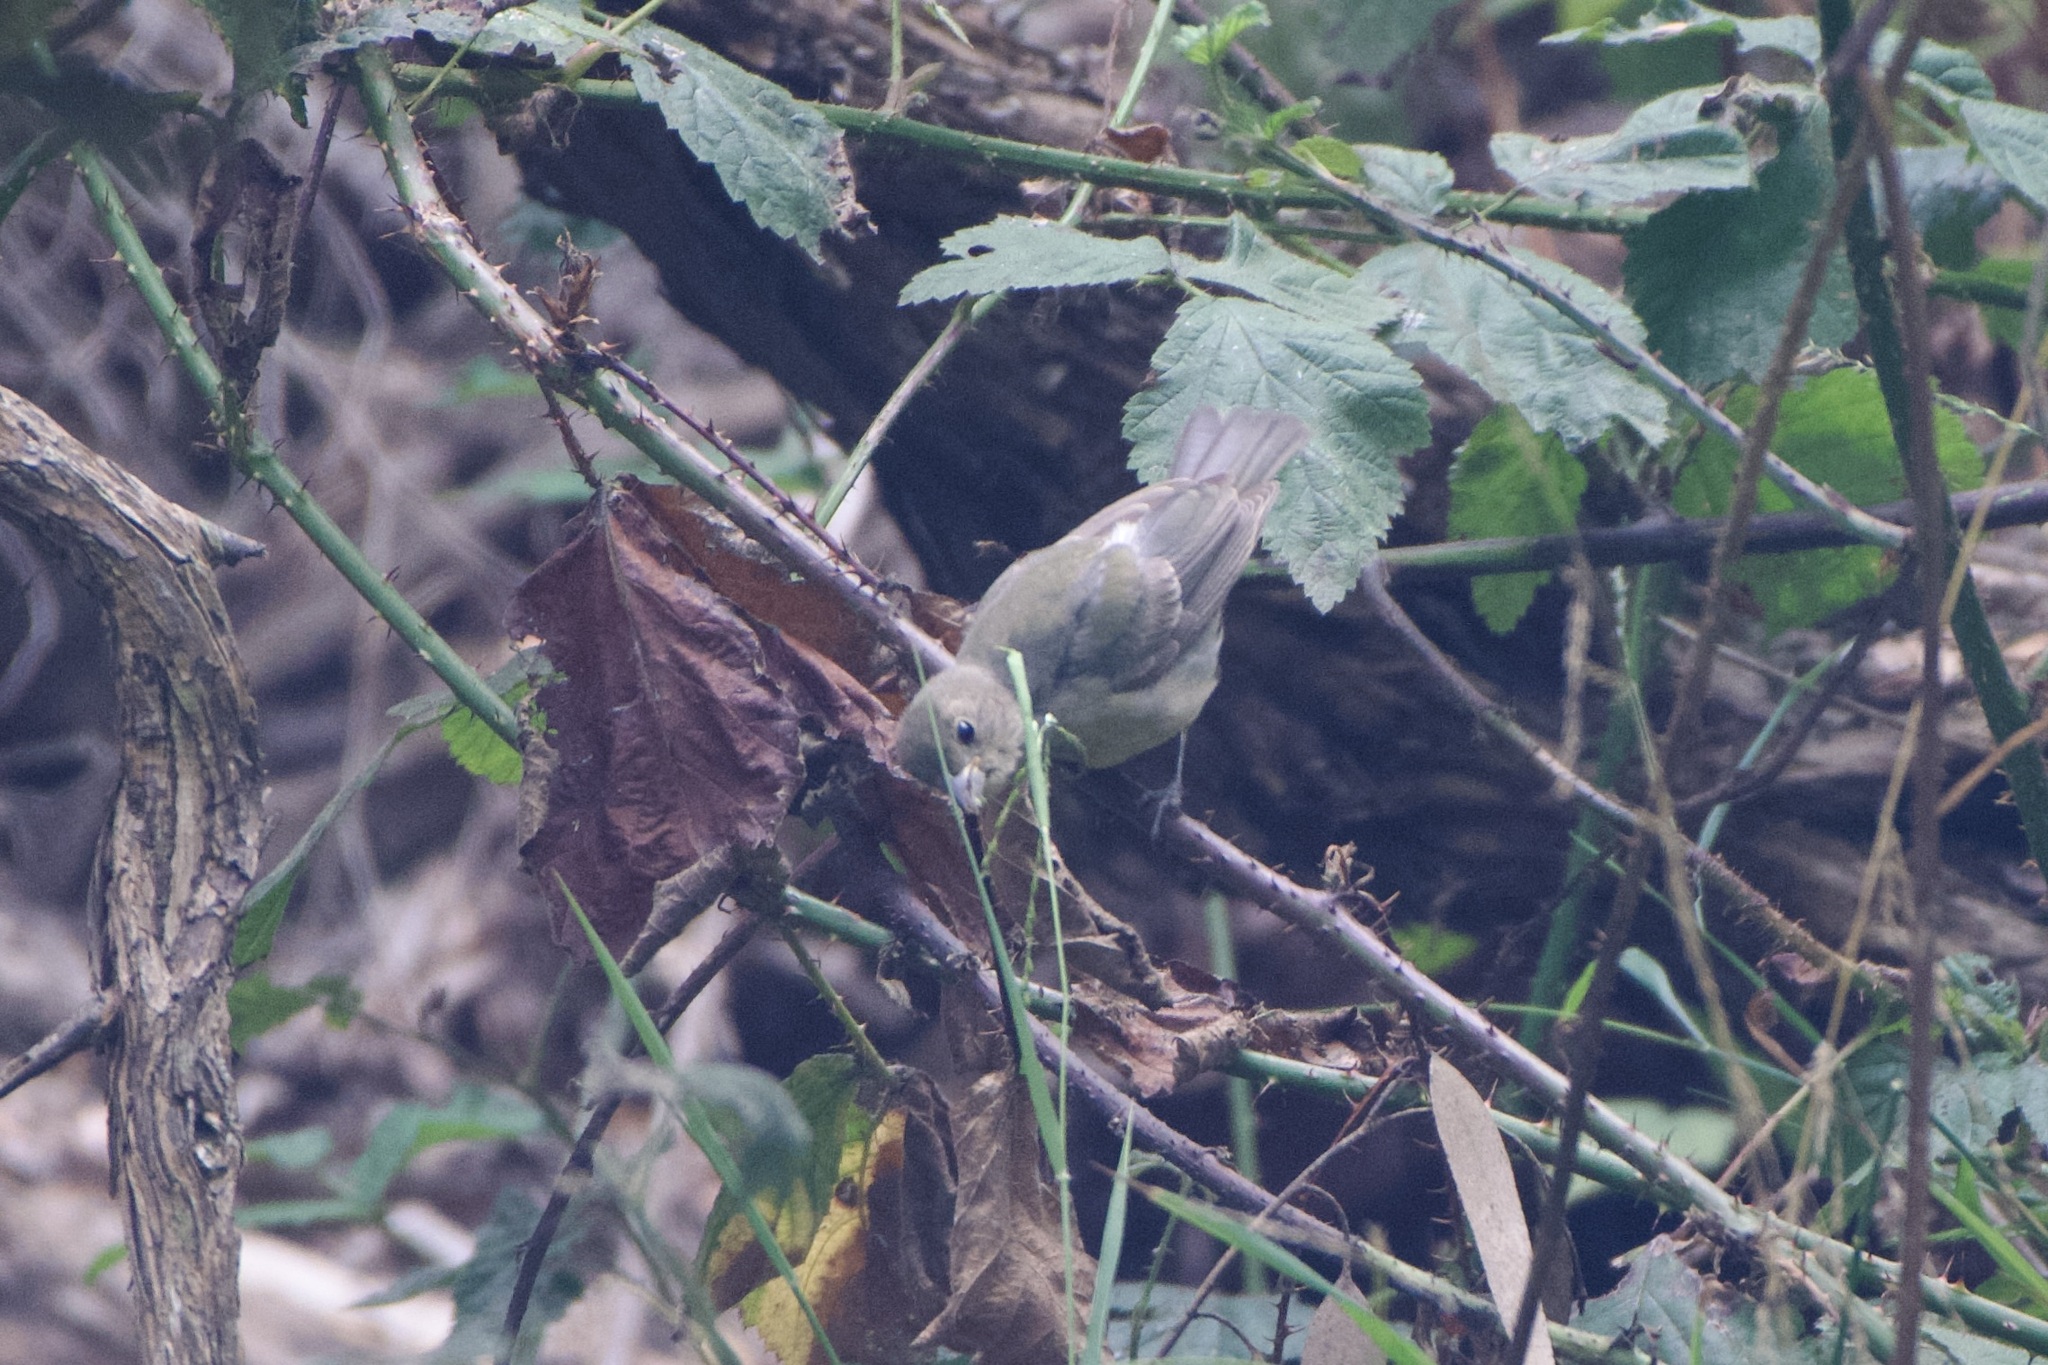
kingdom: Animalia
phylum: Chordata
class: Aves
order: Passeriformes
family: Cardinalidae
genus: Passerina
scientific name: Passerina ciris
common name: Painted bunting
